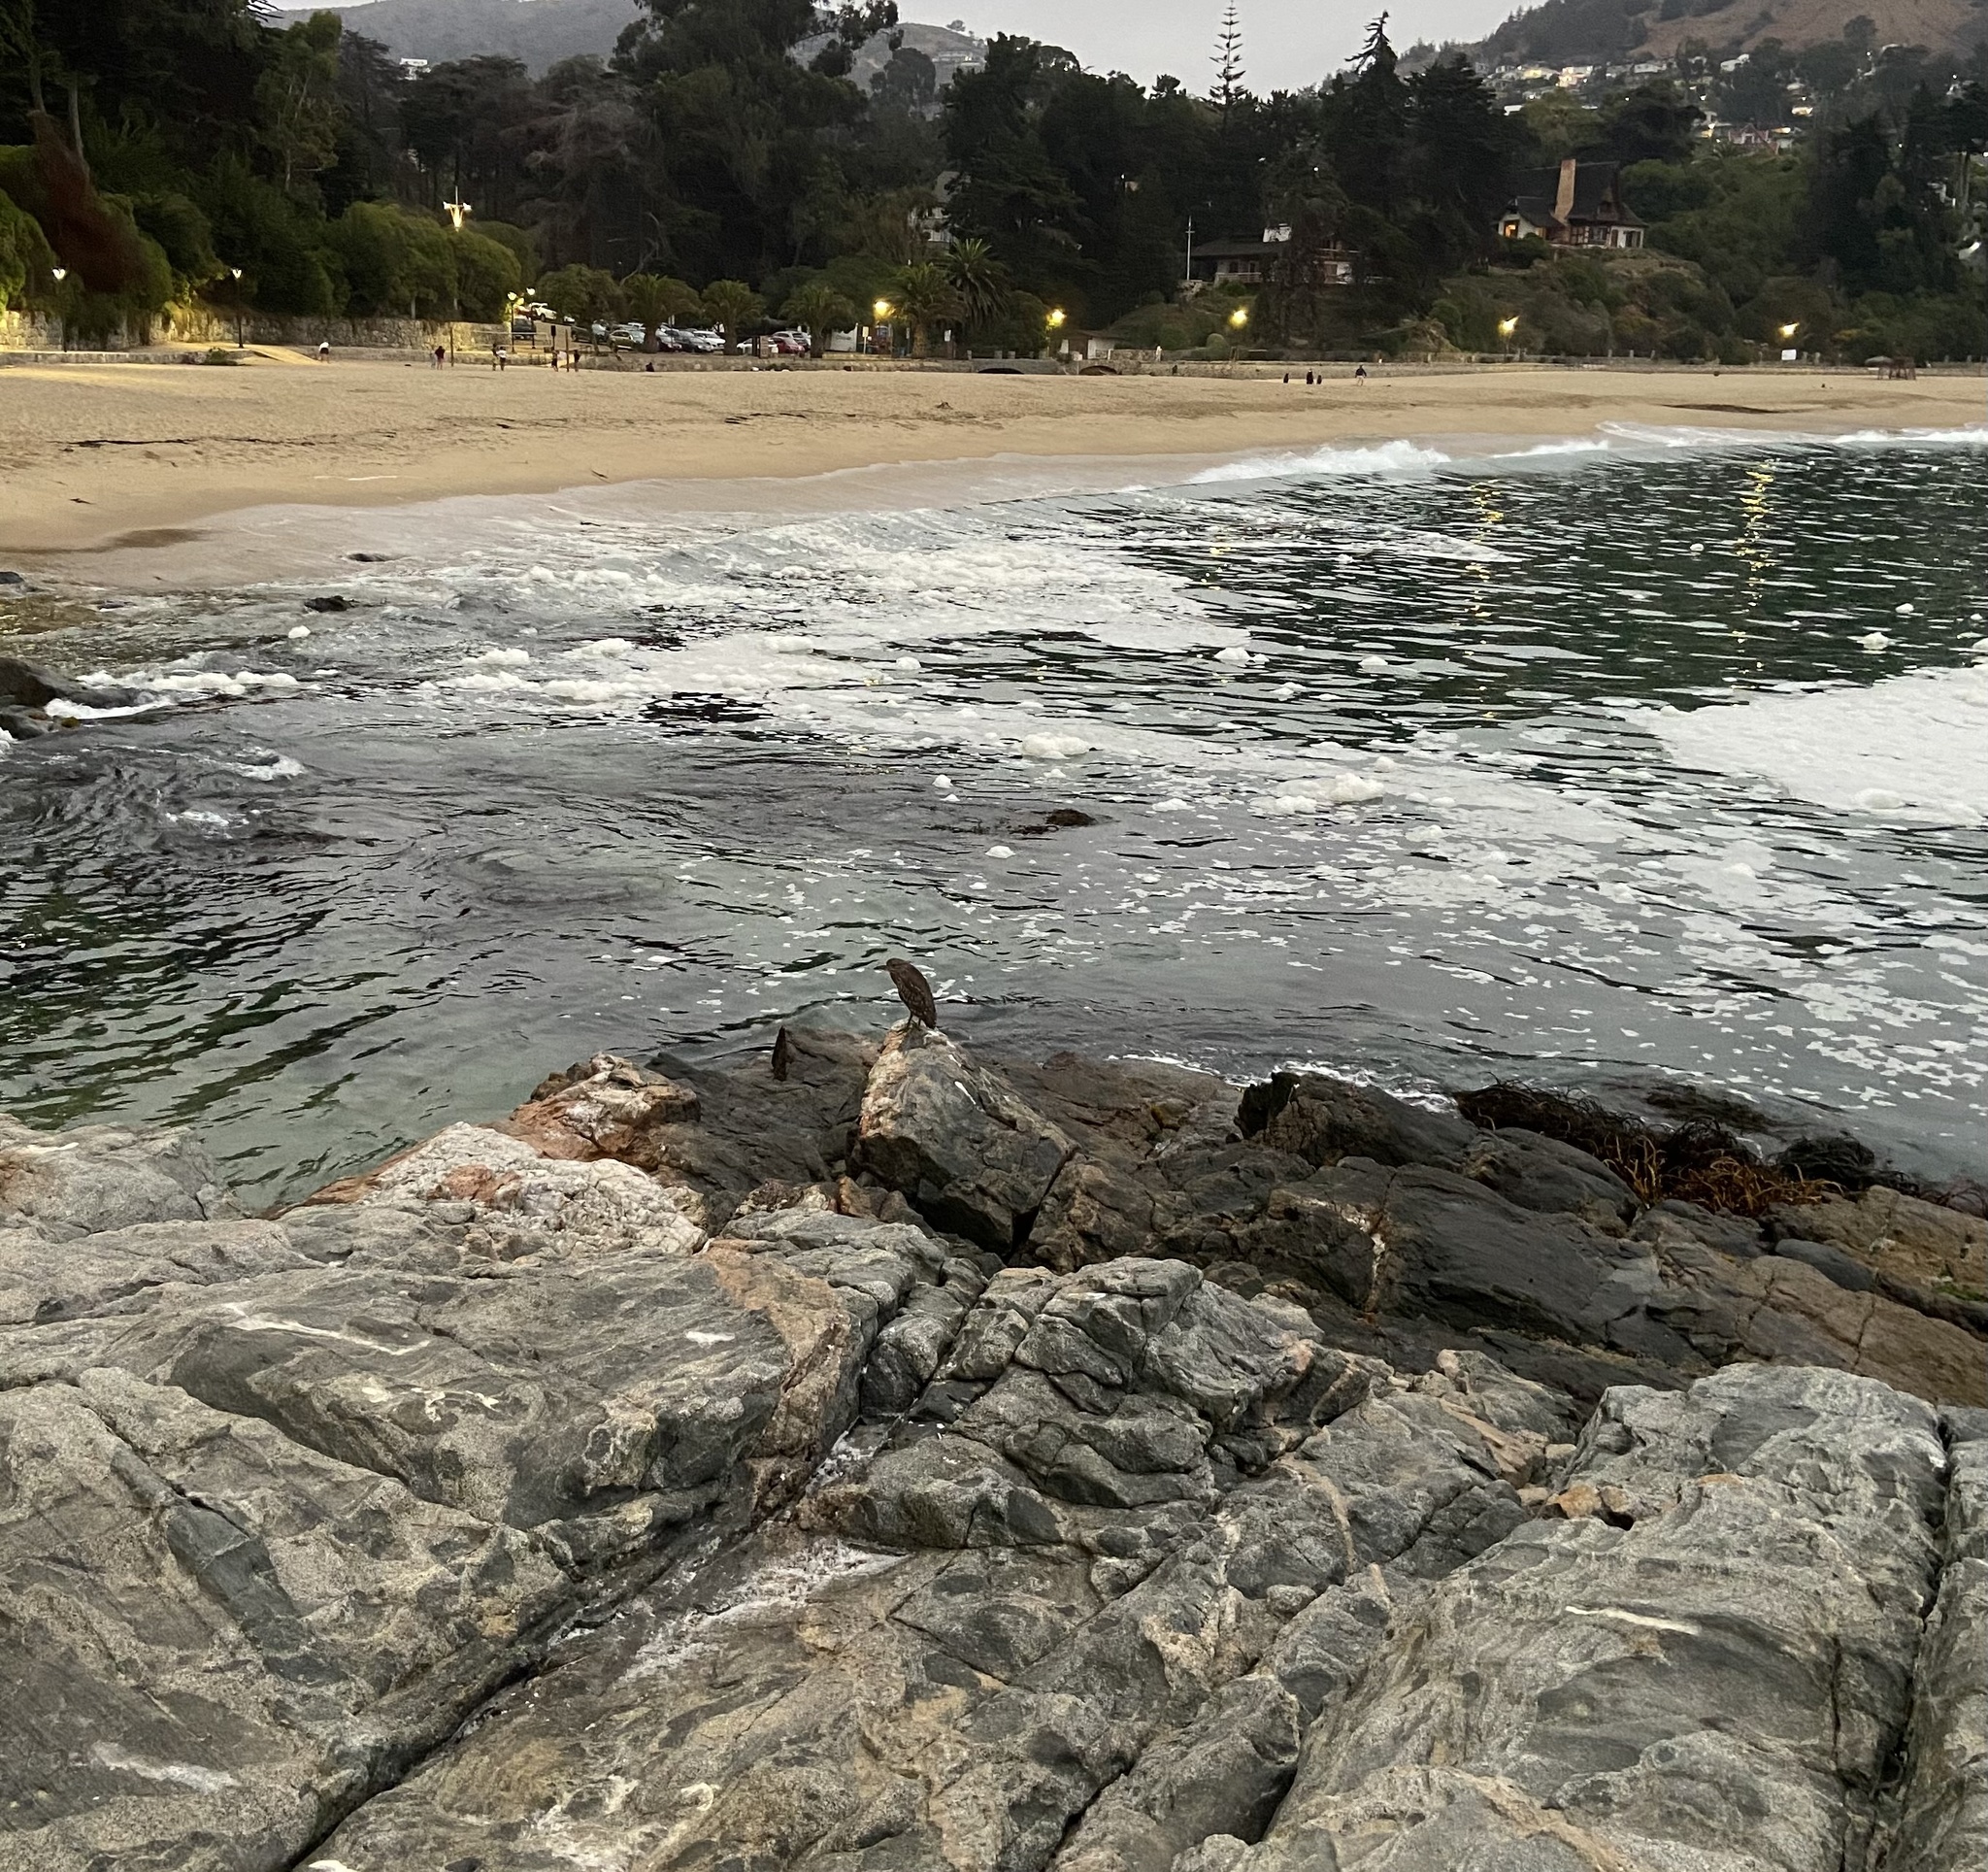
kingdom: Animalia
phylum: Chordata
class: Aves
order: Pelecaniformes
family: Ardeidae
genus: Nycticorax
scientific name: Nycticorax nycticorax
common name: Black-crowned night heron
